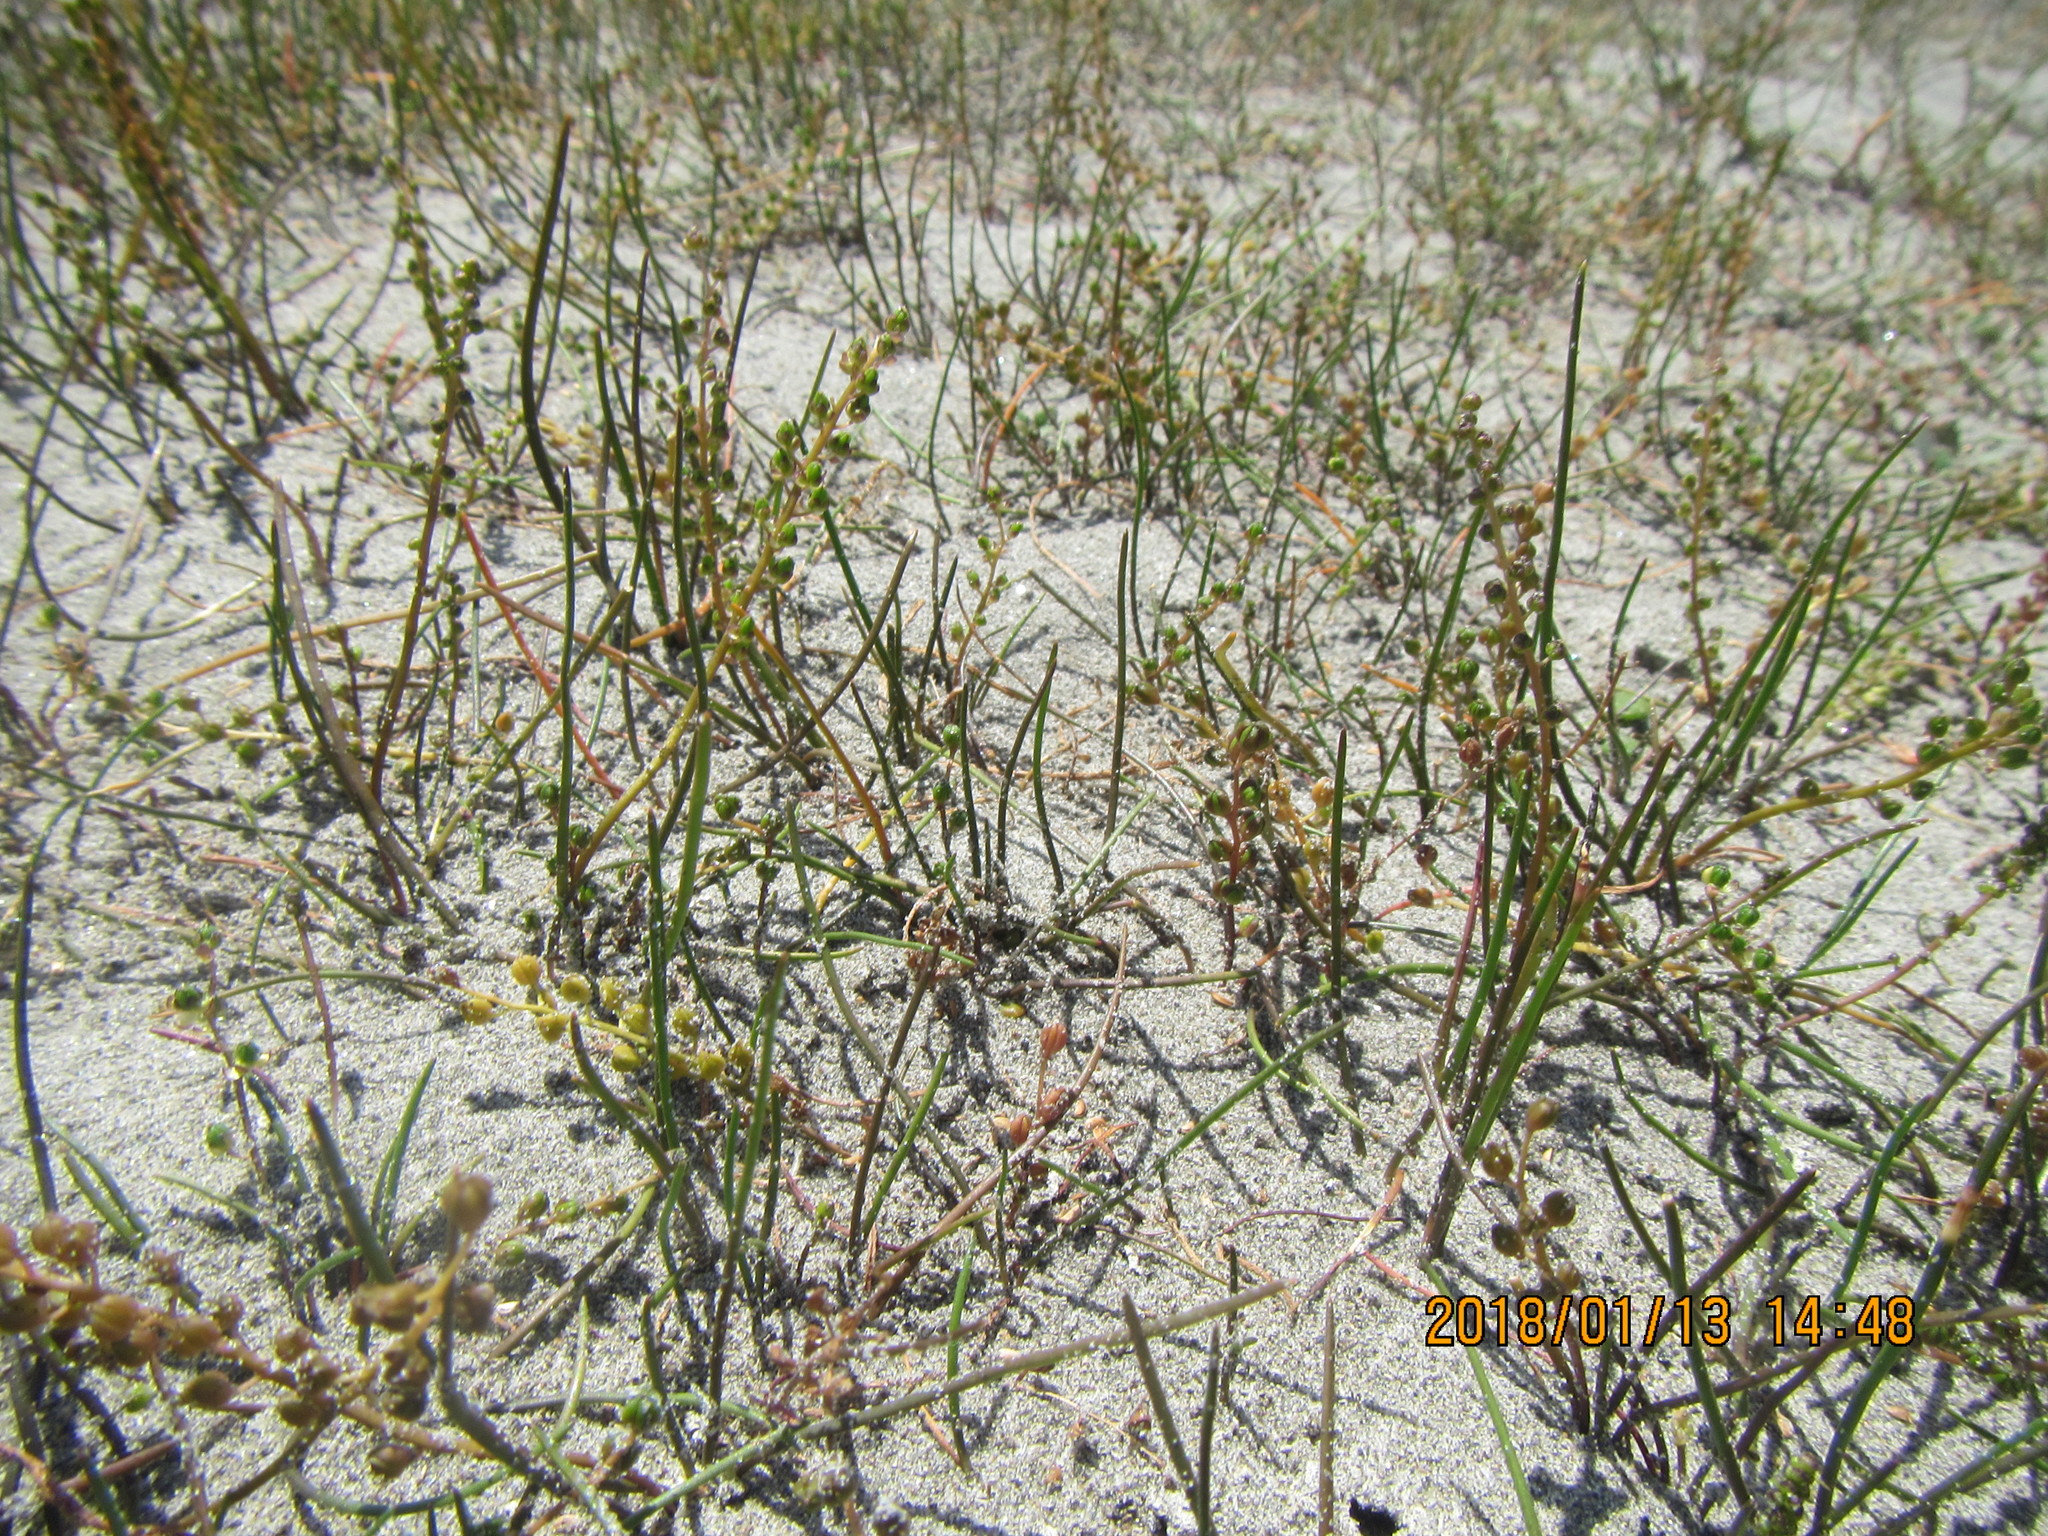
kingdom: Plantae
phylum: Tracheophyta
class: Liliopsida
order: Alismatales
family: Juncaginaceae
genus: Triglochin
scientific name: Triglochin striata
